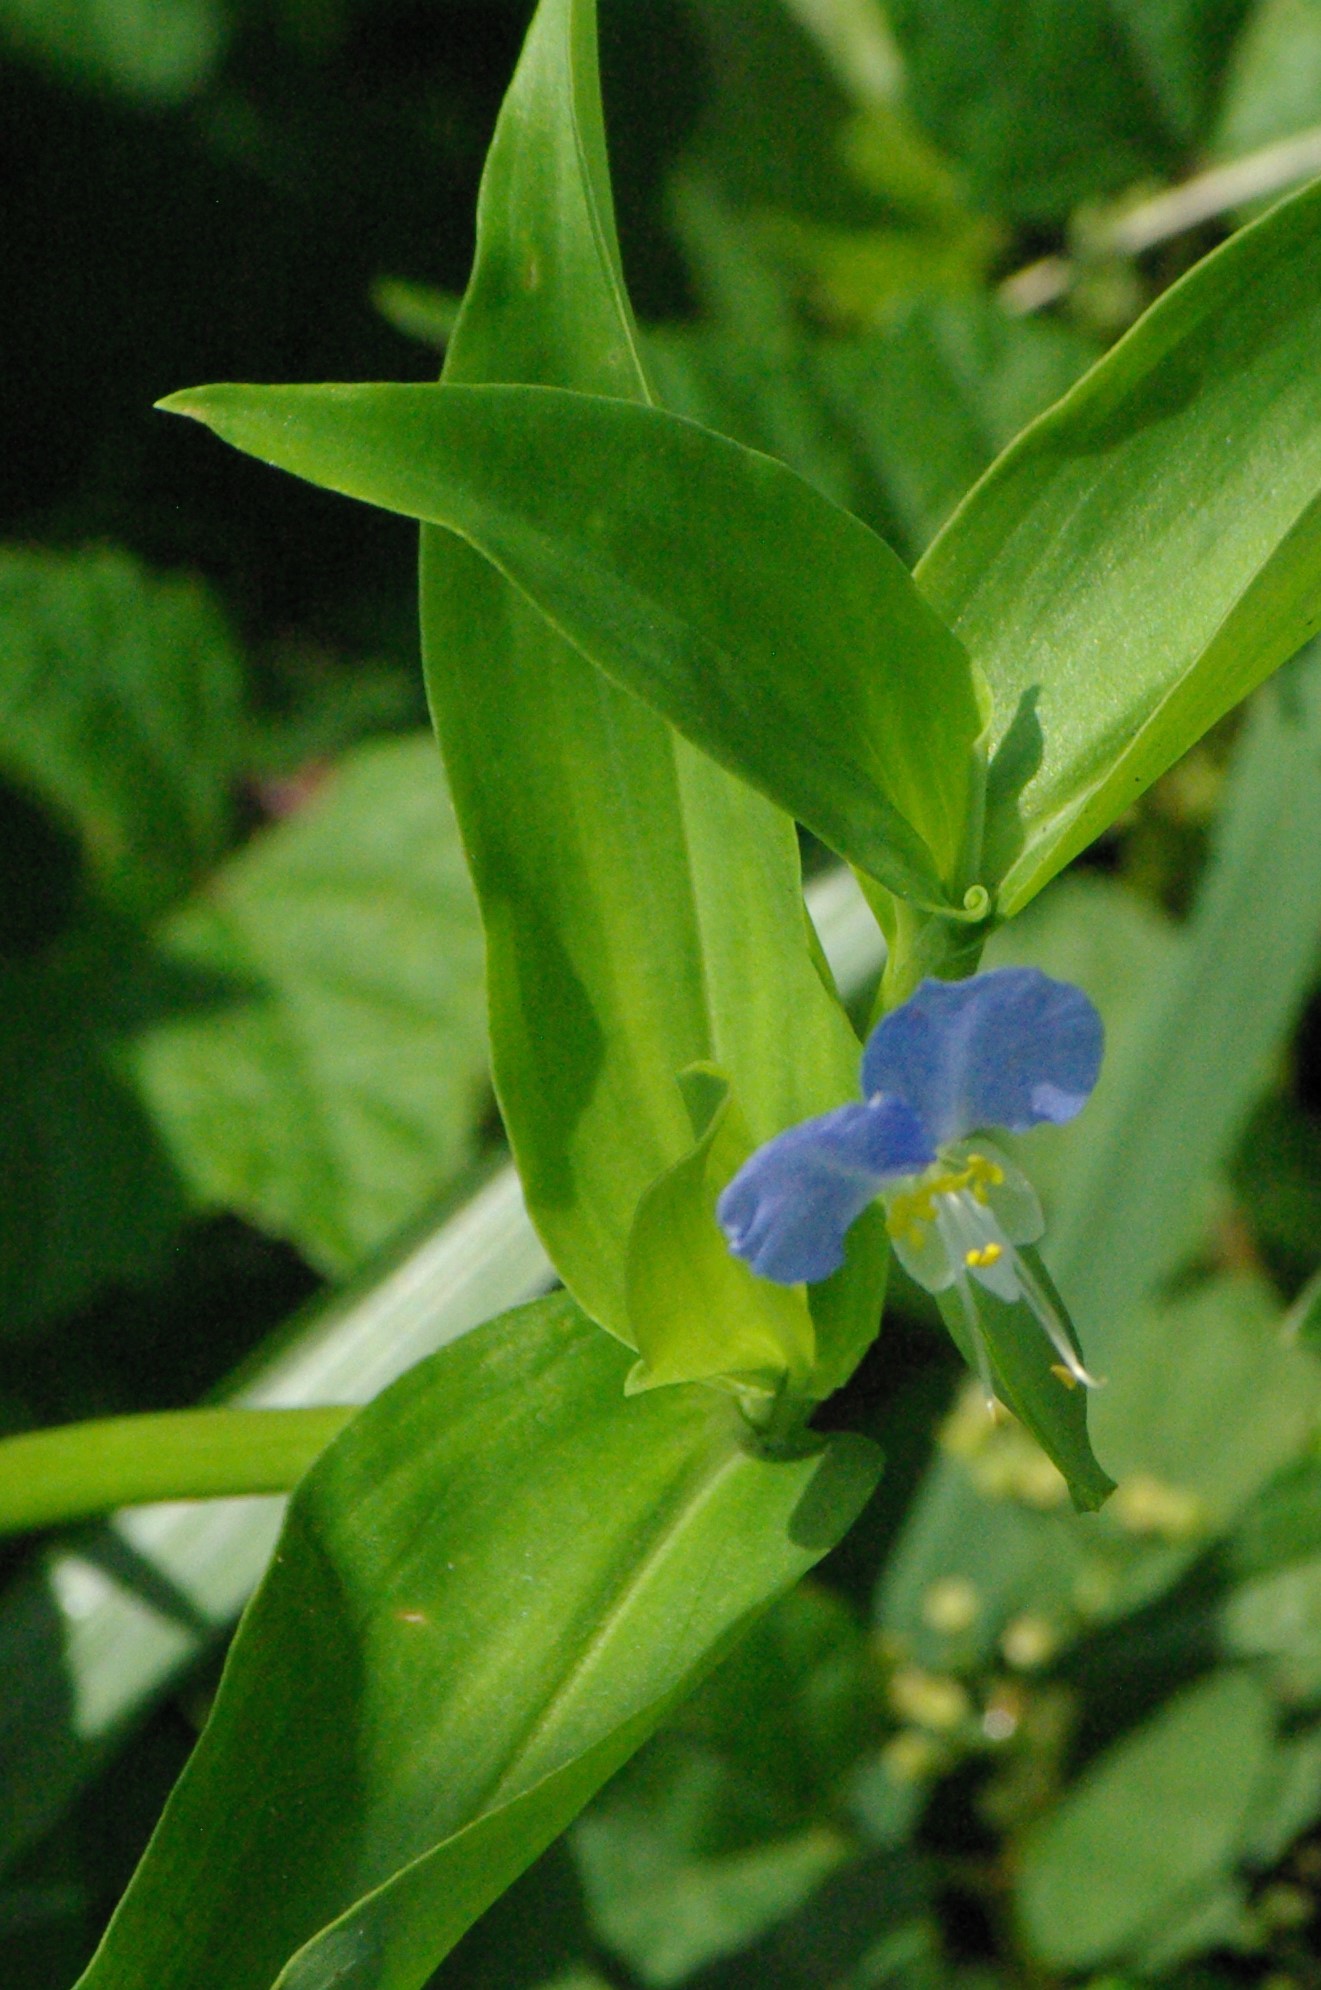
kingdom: Plantae
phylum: Tracheophyta
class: Liliopsida
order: Commelinales
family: Commelinaceae
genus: Commelina
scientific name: Commelina communis
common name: Asiatic dayflower
